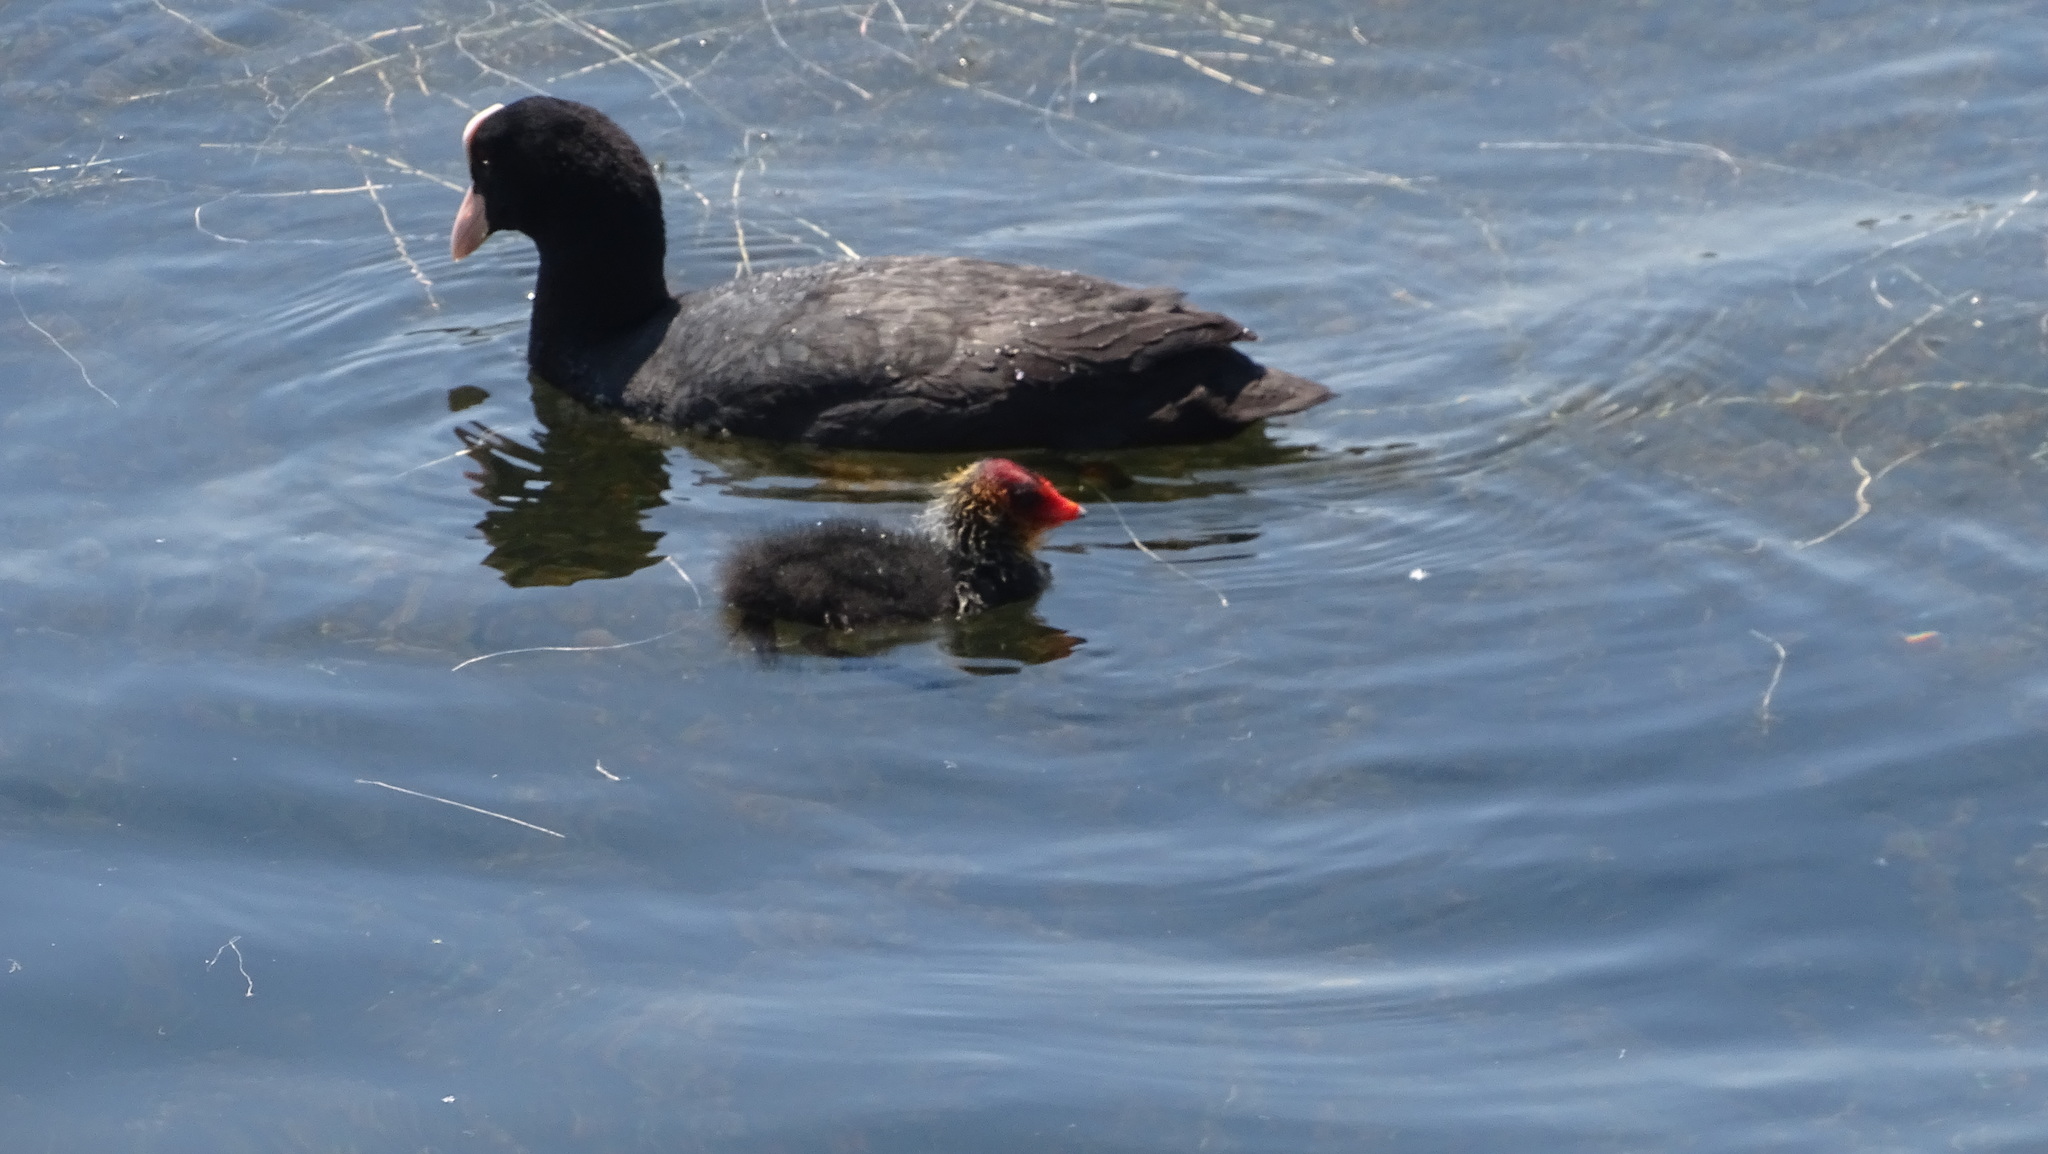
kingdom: Animalia
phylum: Chordata
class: Aves
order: Gruiformes
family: Rallidae
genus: Fulica
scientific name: Fulica atra
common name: Eurasian coot
